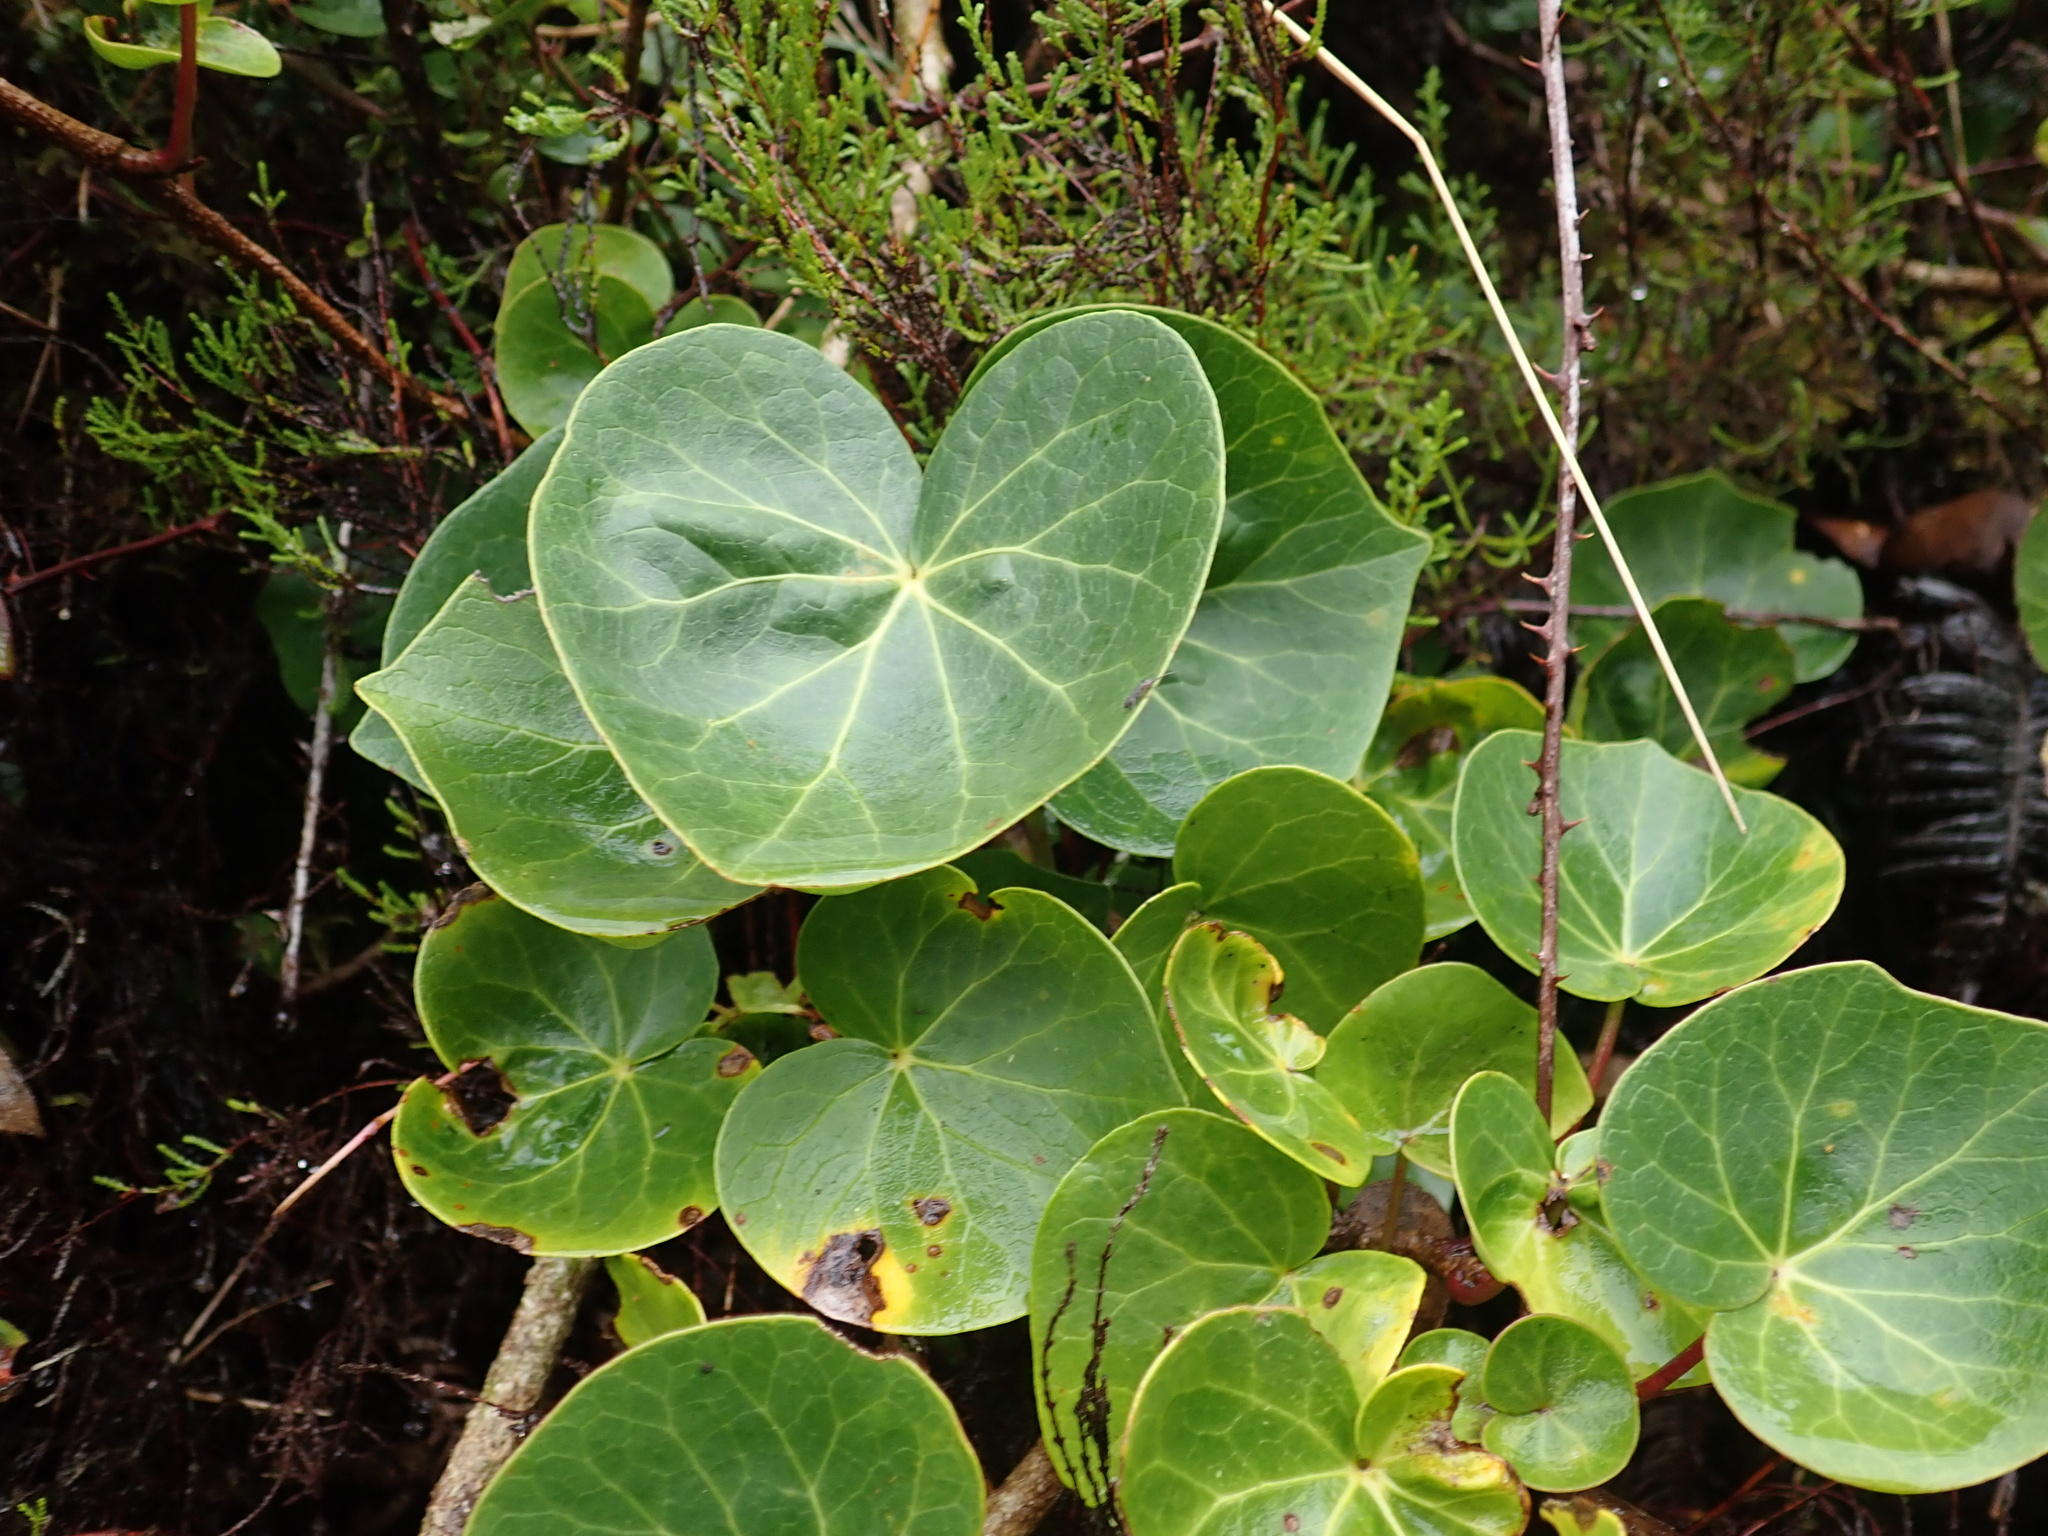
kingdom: Plantae
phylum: Tracheophyta
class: Magnoliopsida
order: Apiales
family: Araliaceae
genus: Hedera
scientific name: Hedera azorica
